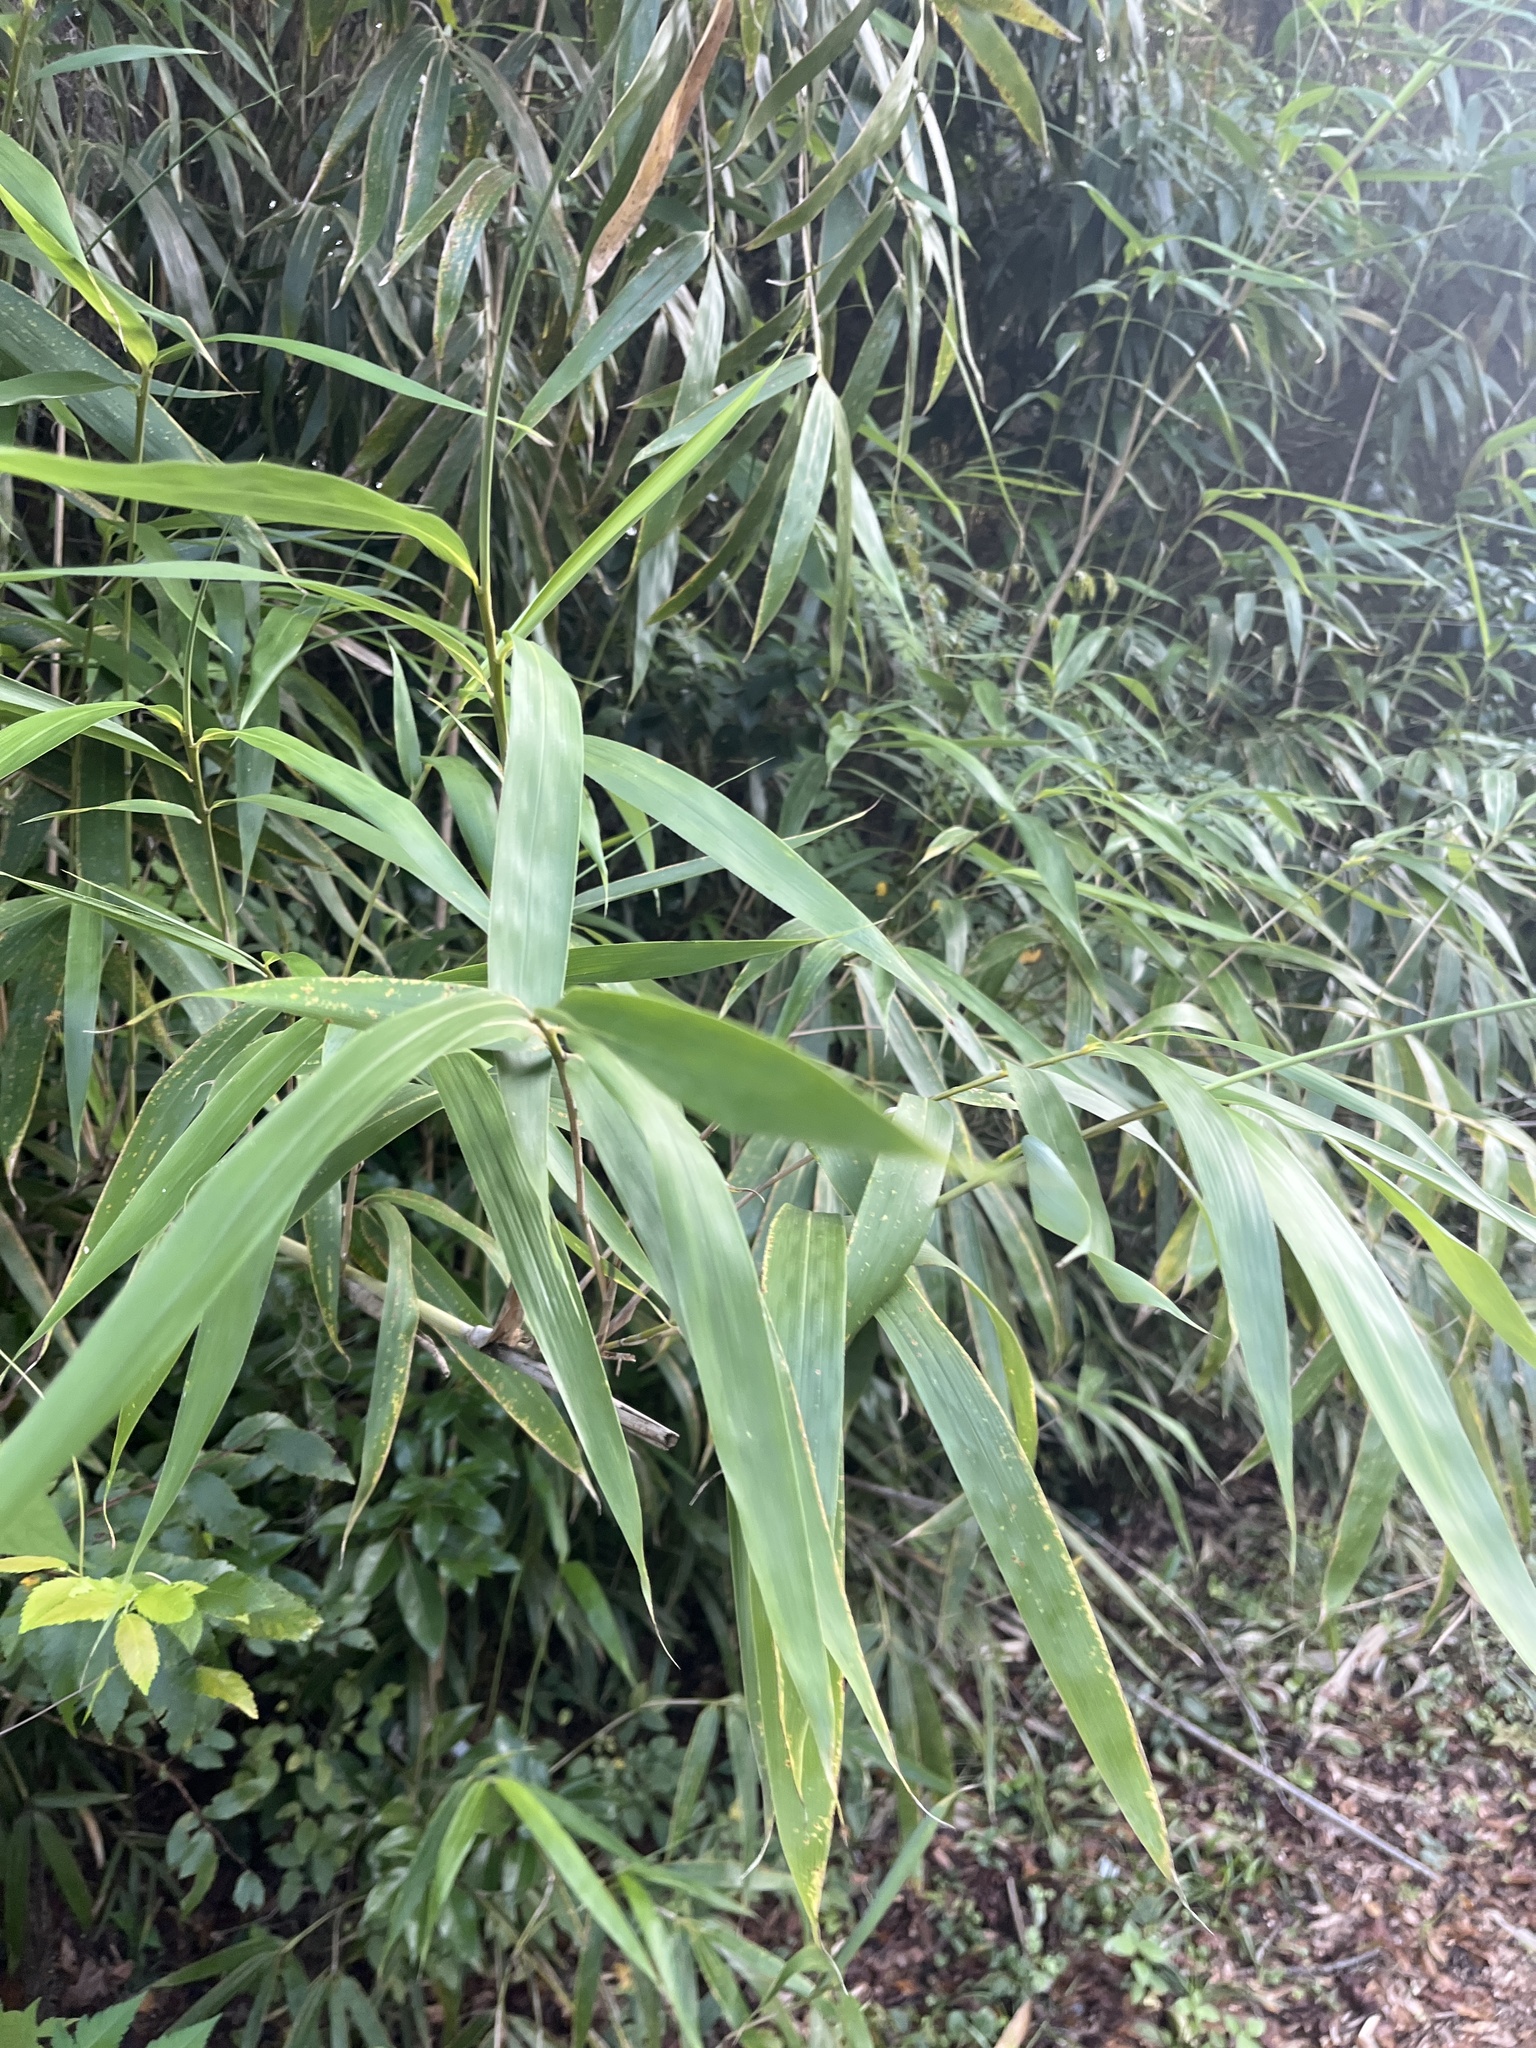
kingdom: Plantae
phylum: Tracheophyta
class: Liliopsida
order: Poales
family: Poaceae
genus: Pseudosasa
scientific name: Pseudosasa japonica
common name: Arrow bamboo
